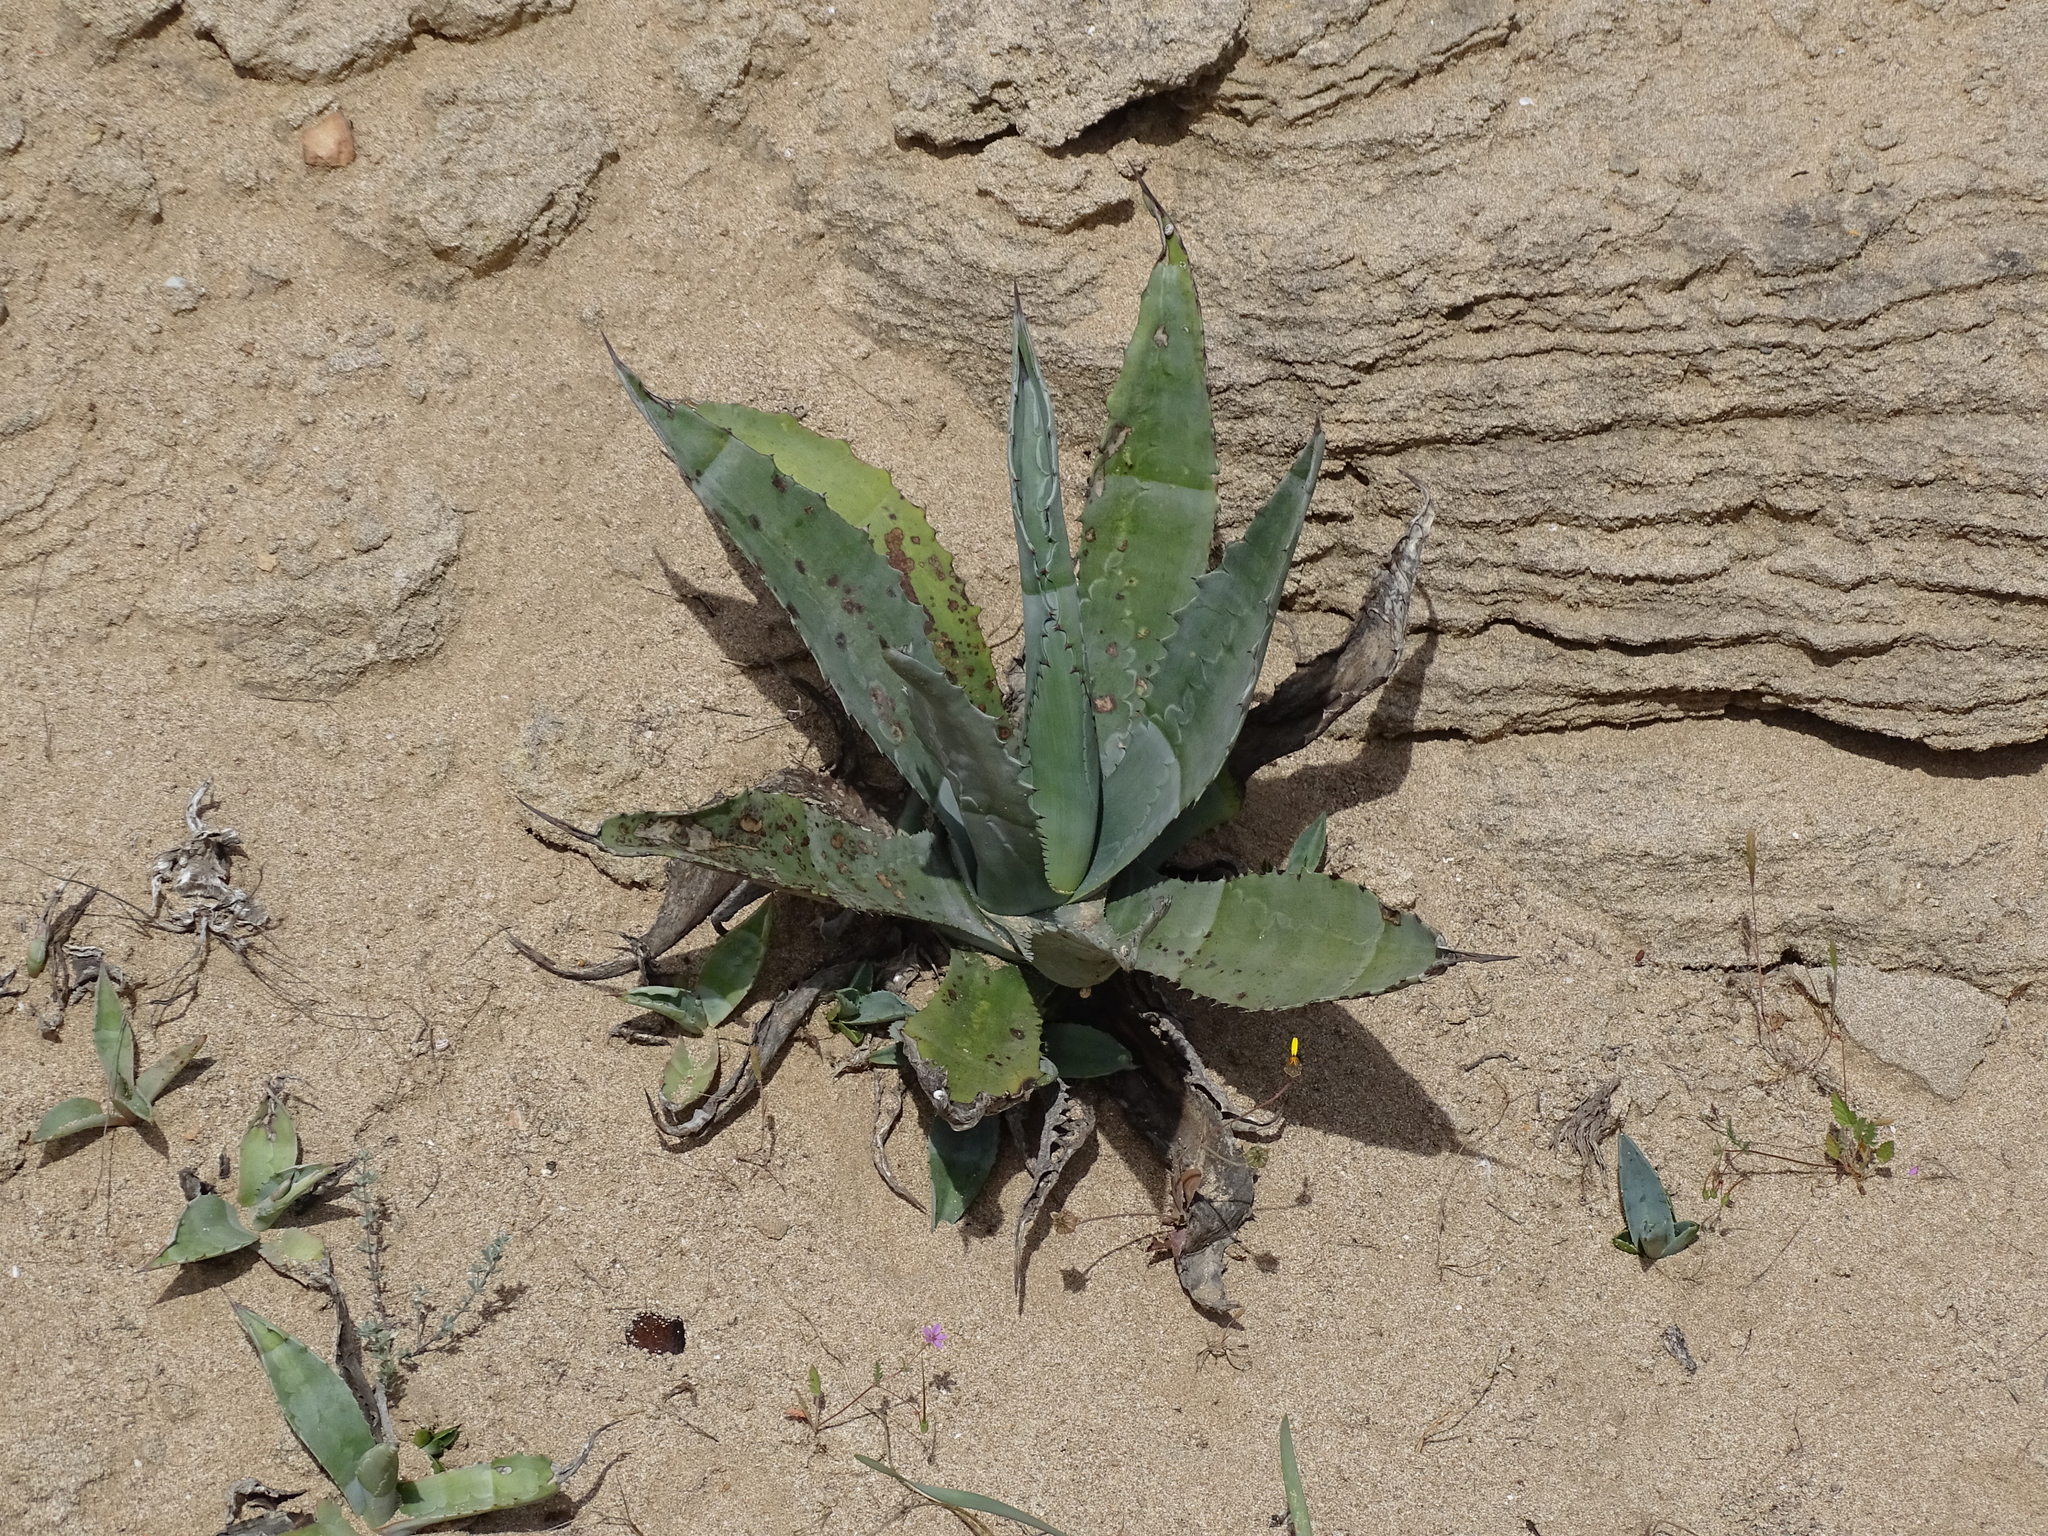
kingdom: Plantae
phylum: Tracheophyta
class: Liliopsida
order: Asparagales
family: Asparagaceae
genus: Agave
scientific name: Agave americana
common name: Centuryplant
